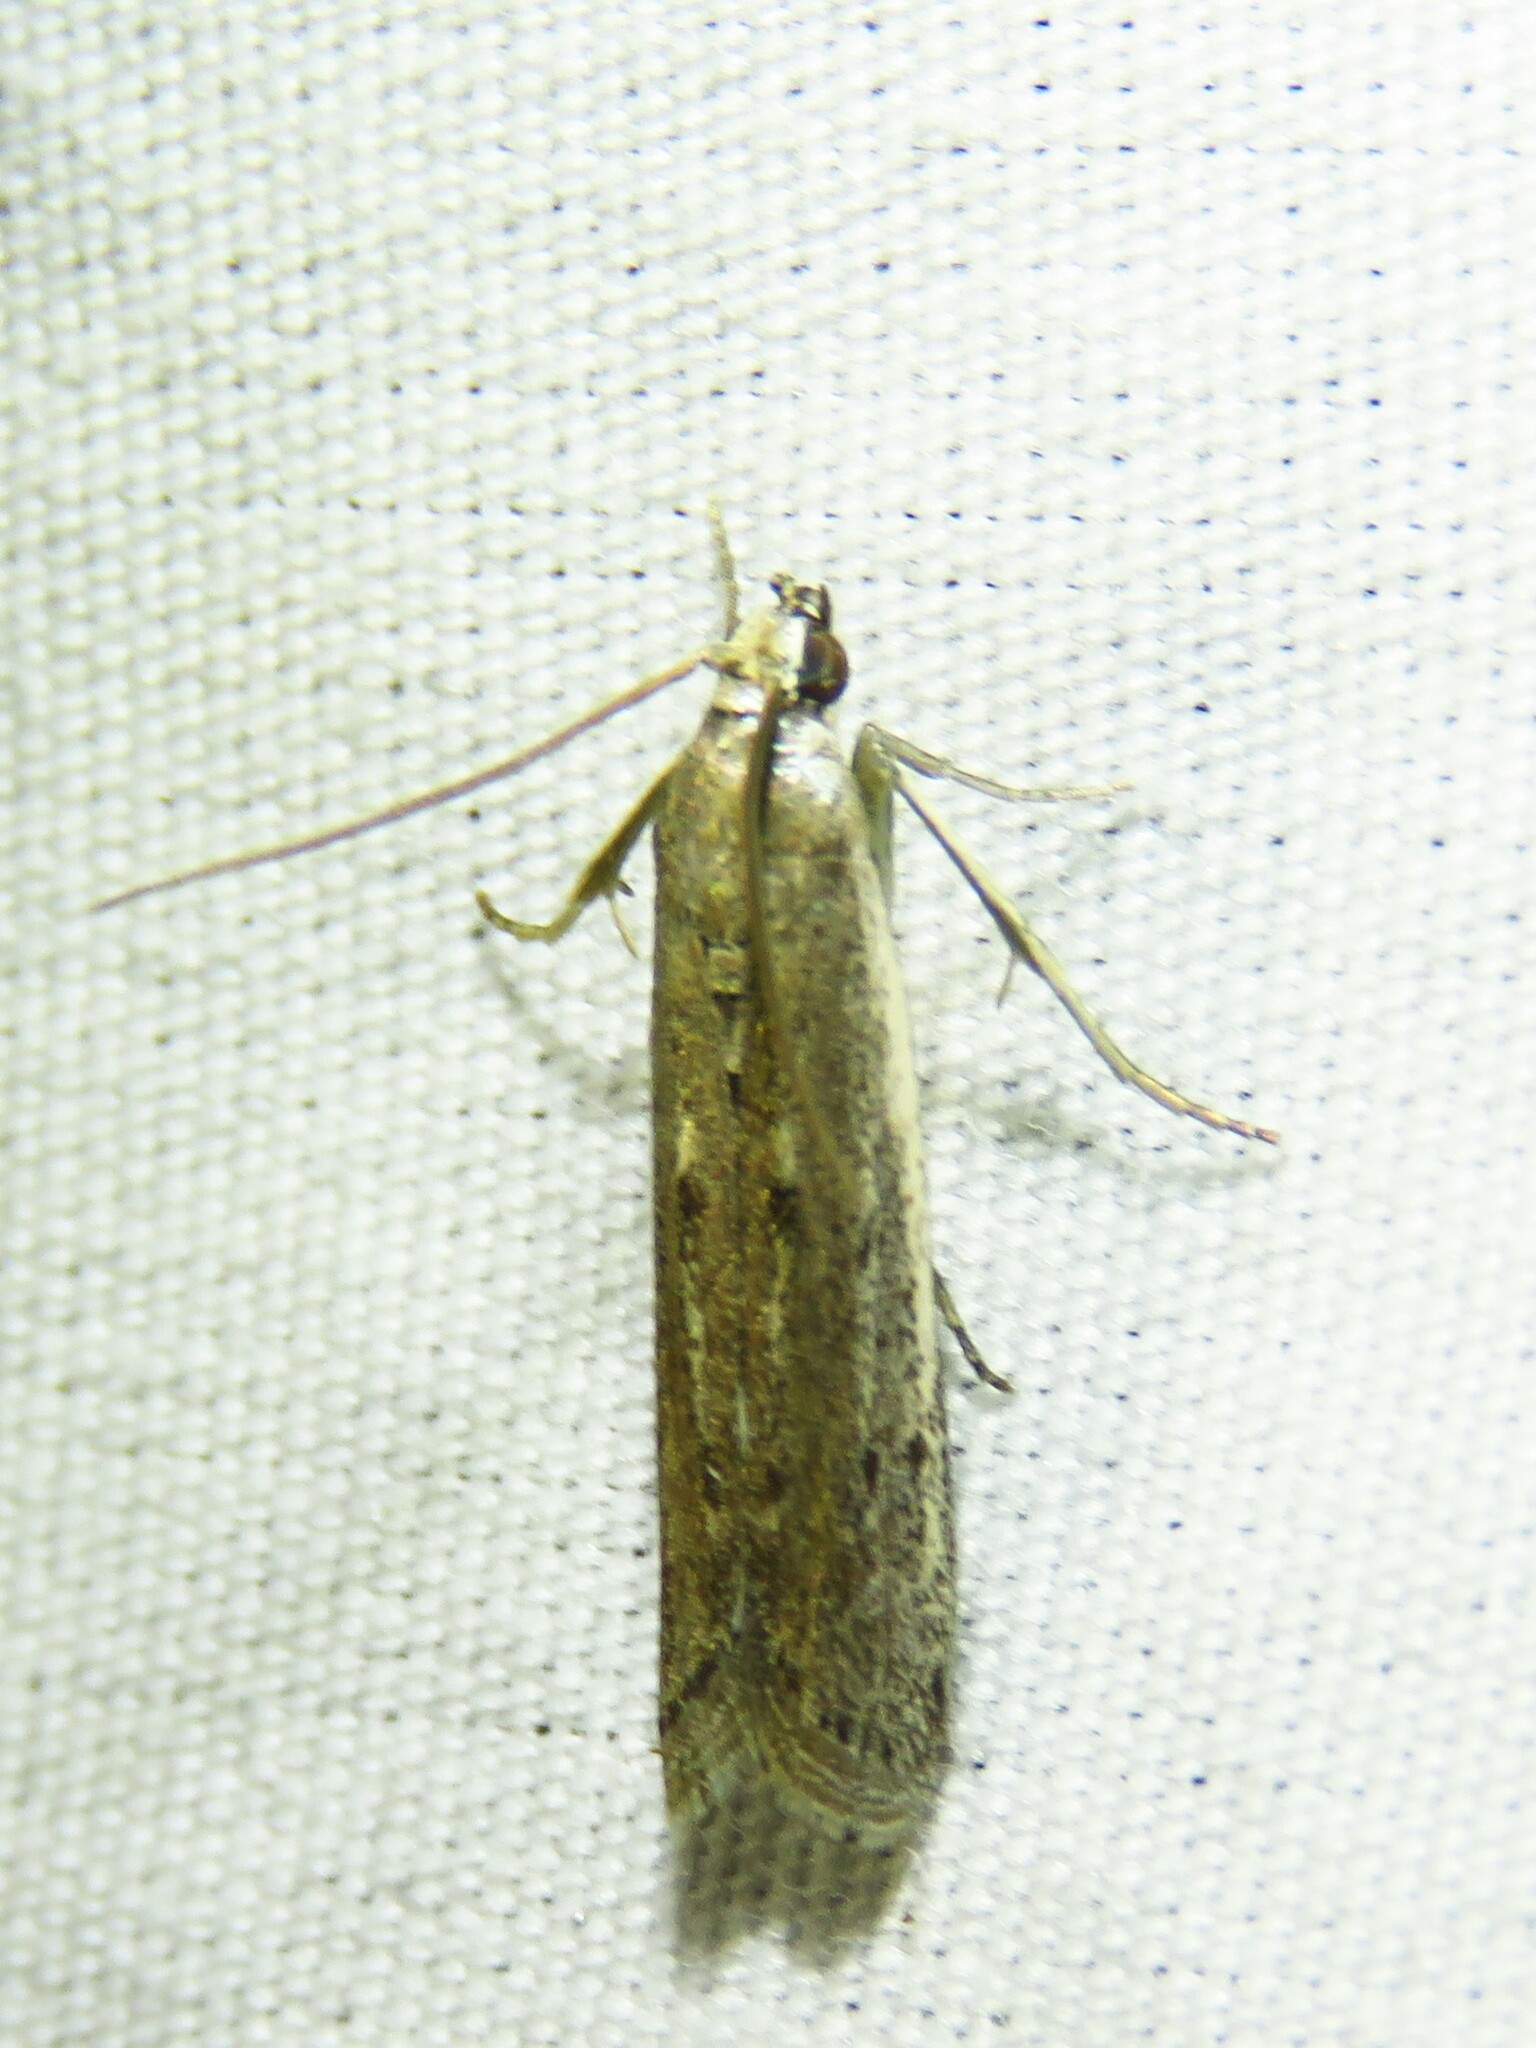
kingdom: Animalia
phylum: Arthropoda
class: Insecta
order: Lepidoptera
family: Pyralidae
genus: Homoeosoma
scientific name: Homoeosoma electella
